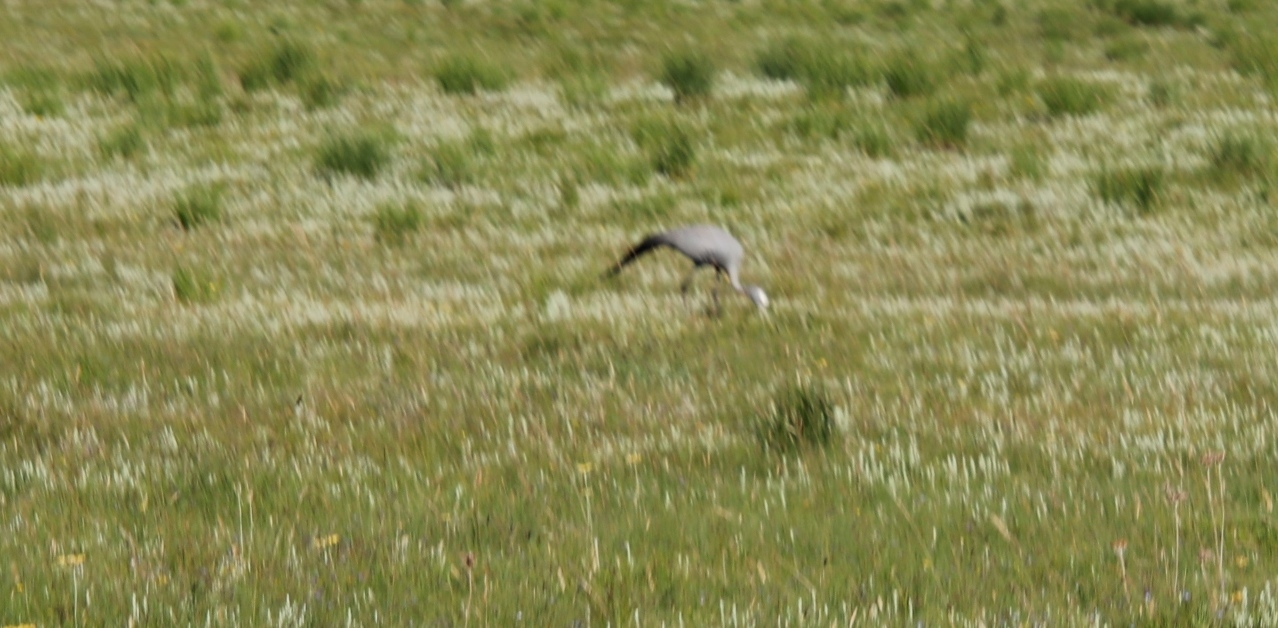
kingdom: Animalia
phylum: Chordata
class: Aves
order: Gruiformes
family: Gruidae
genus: Anthropoides
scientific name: Anthropoides paradiseus
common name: Blue crane
